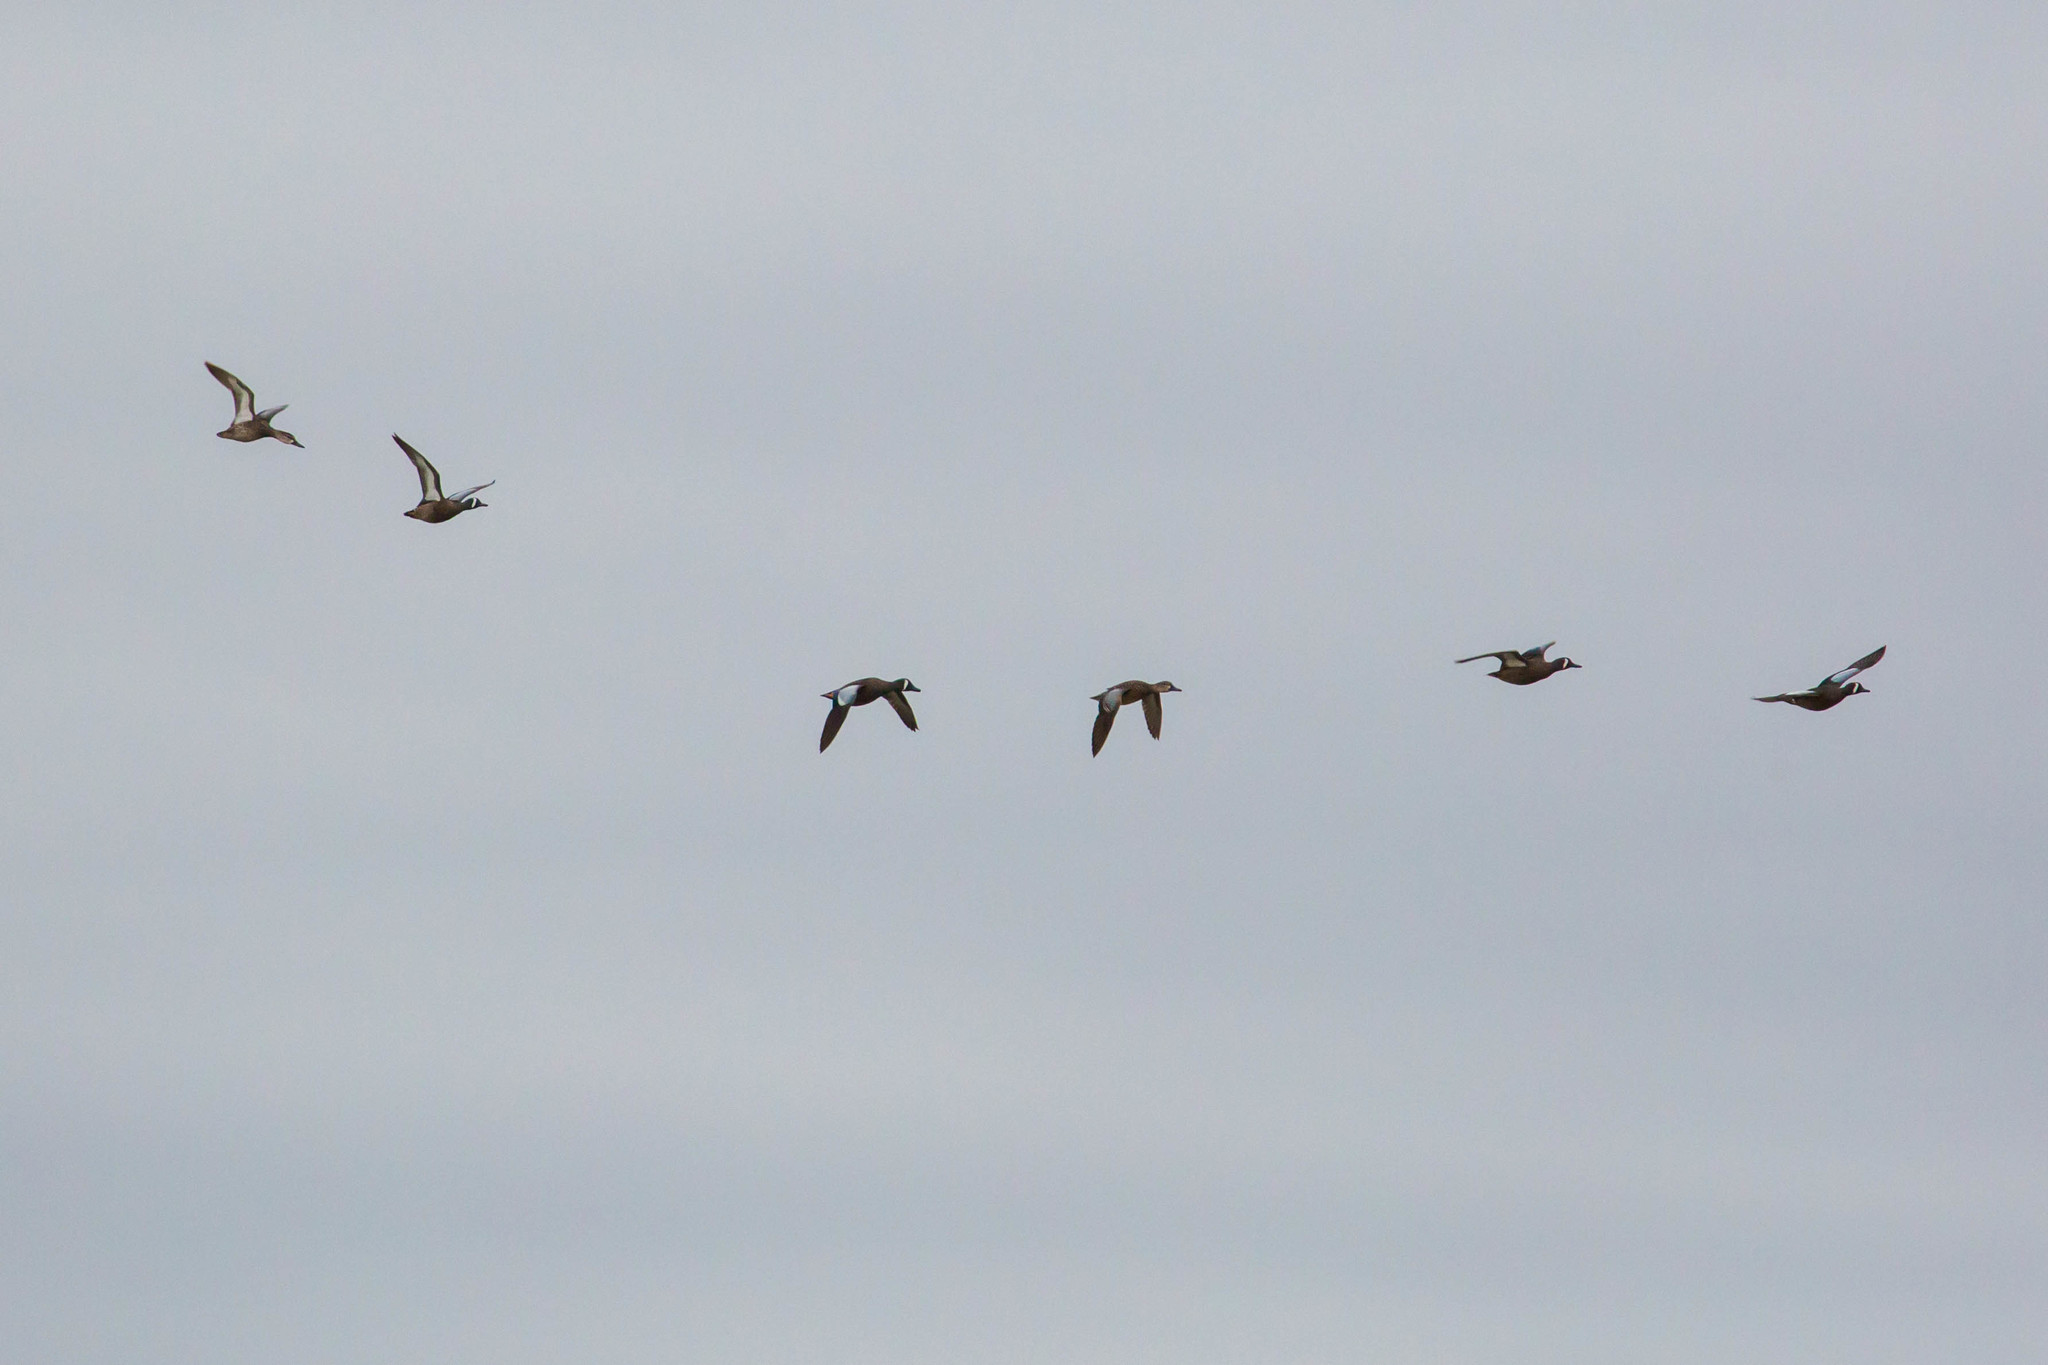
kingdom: Animalia
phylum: Chordata
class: Aves
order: Anseriformes
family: Anatidae
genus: Spatula
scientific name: Spatula discors
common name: Blue-winged teal
